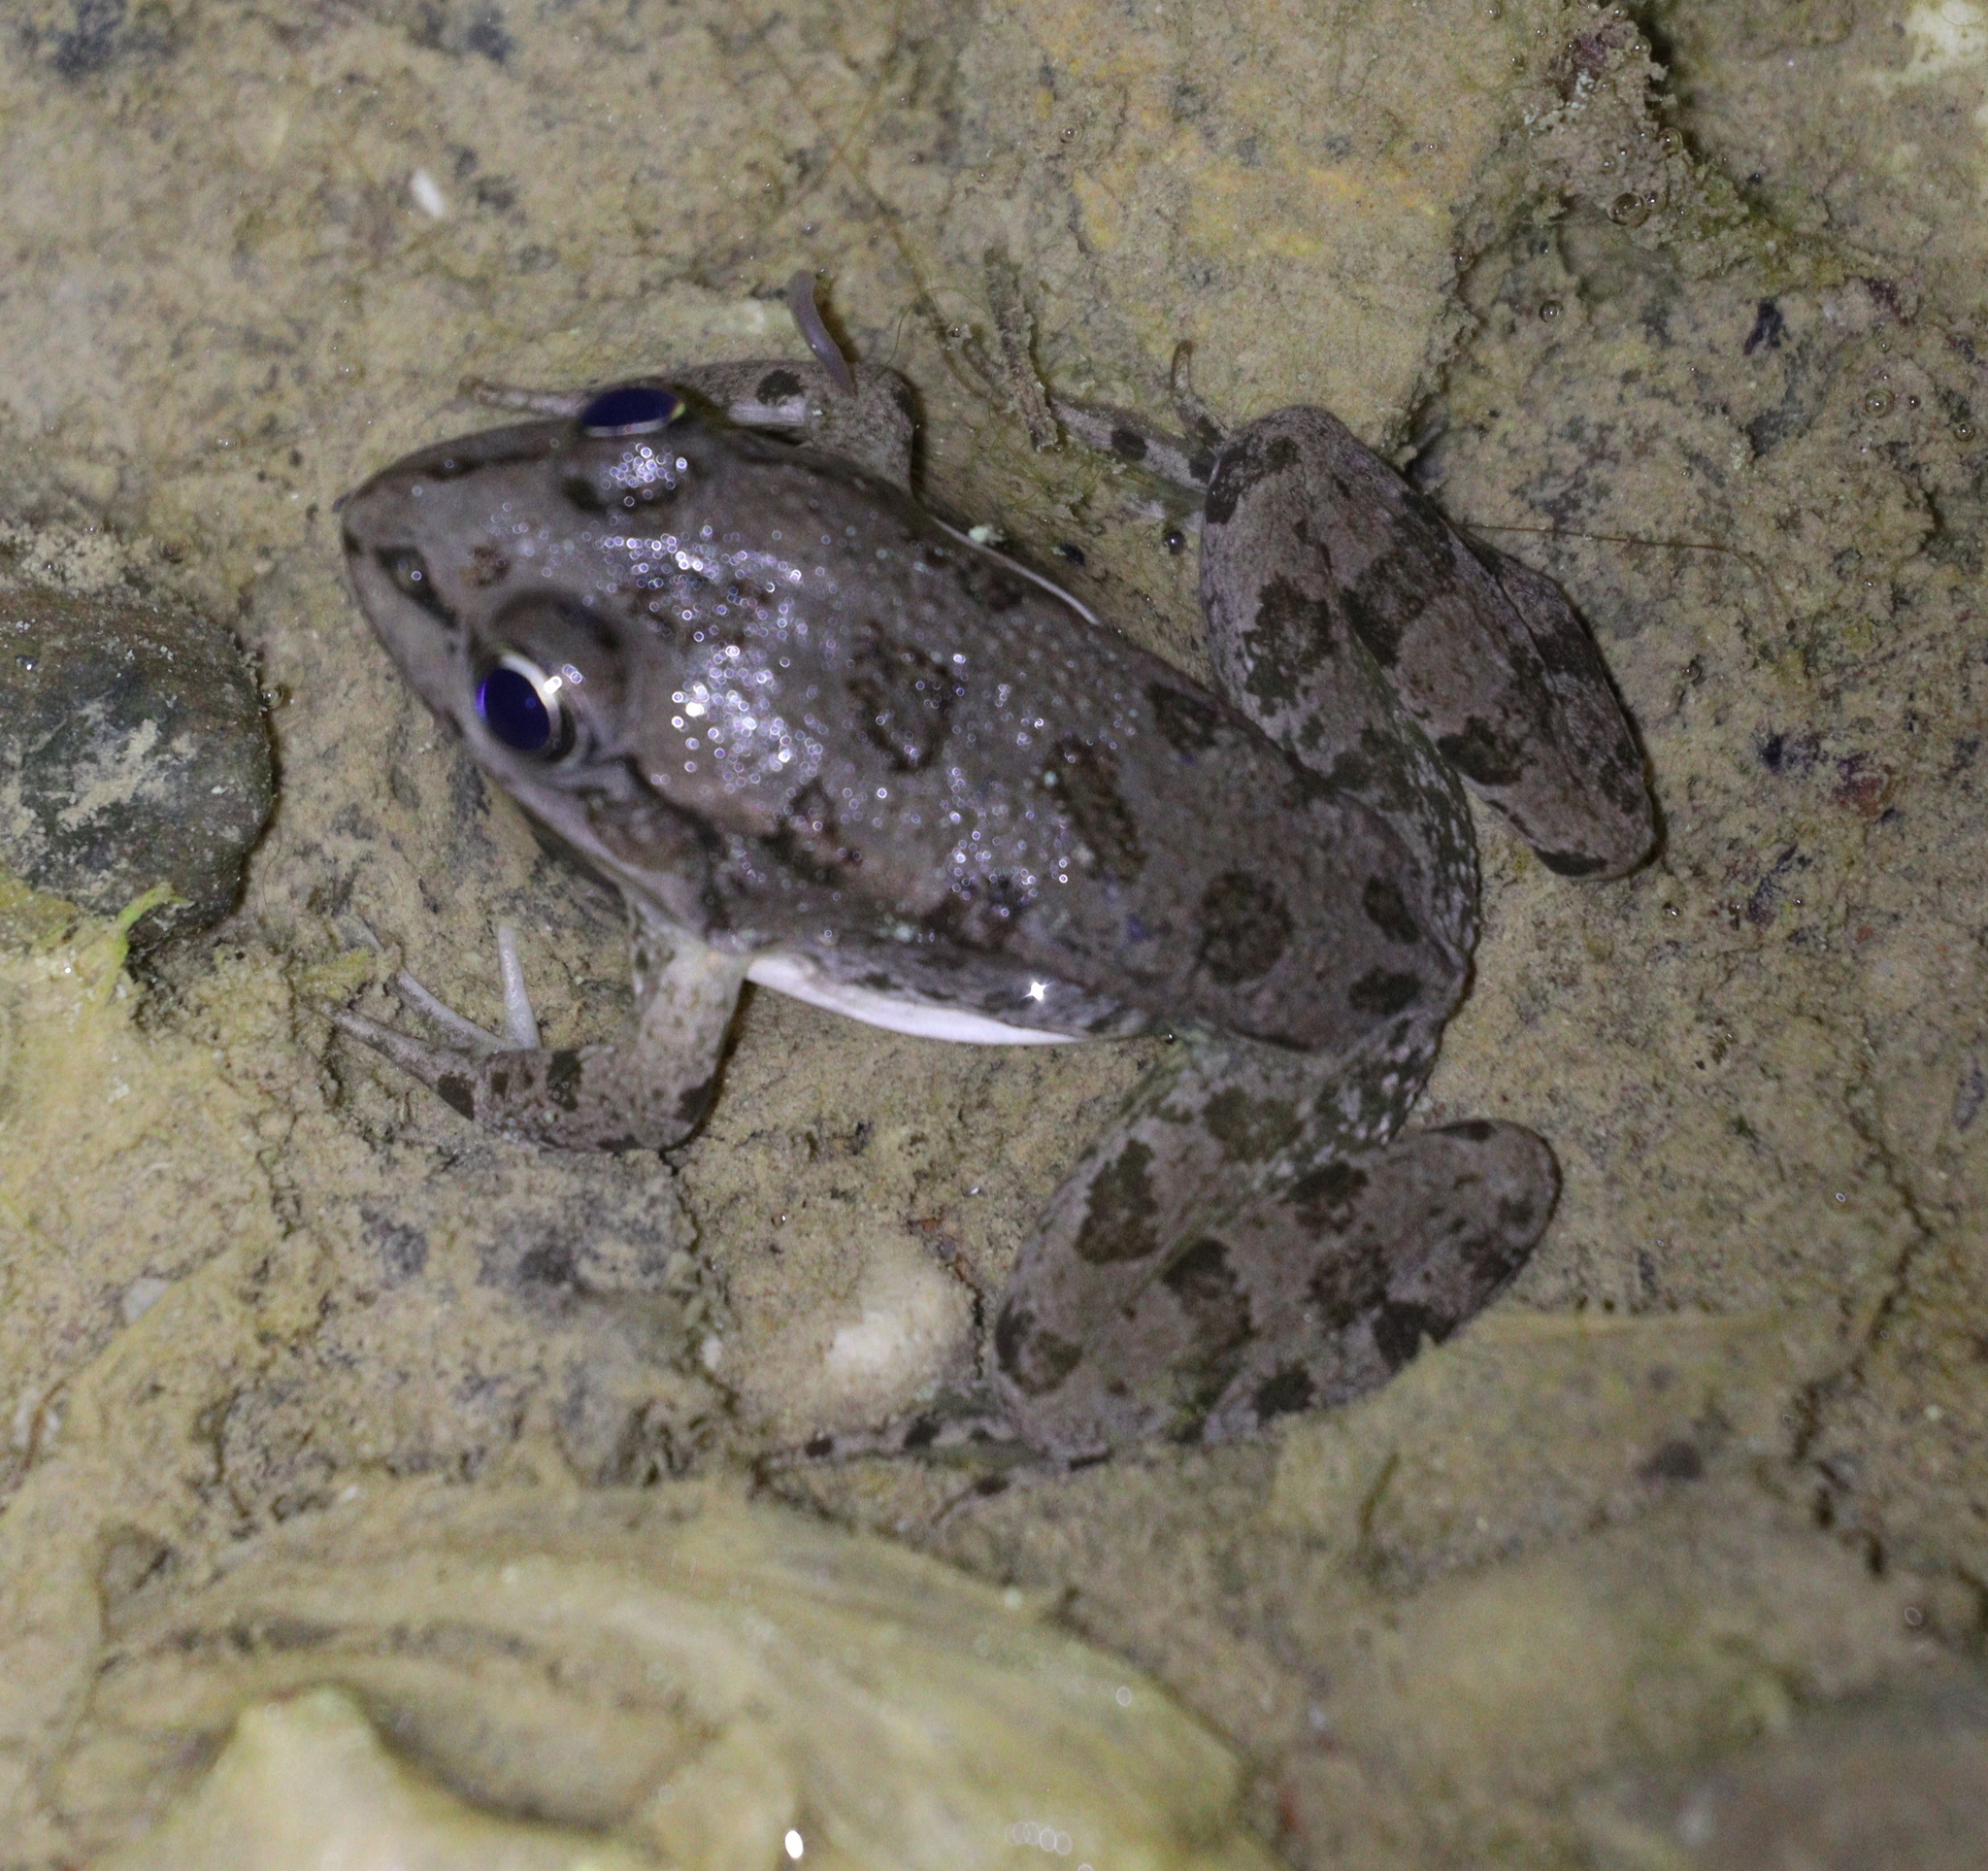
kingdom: Animalia
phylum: Chordata
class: Amphibia
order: Anura
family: Ranidae
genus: Pelophylax
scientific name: Pelophylax ridibundus
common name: Marsh frog
